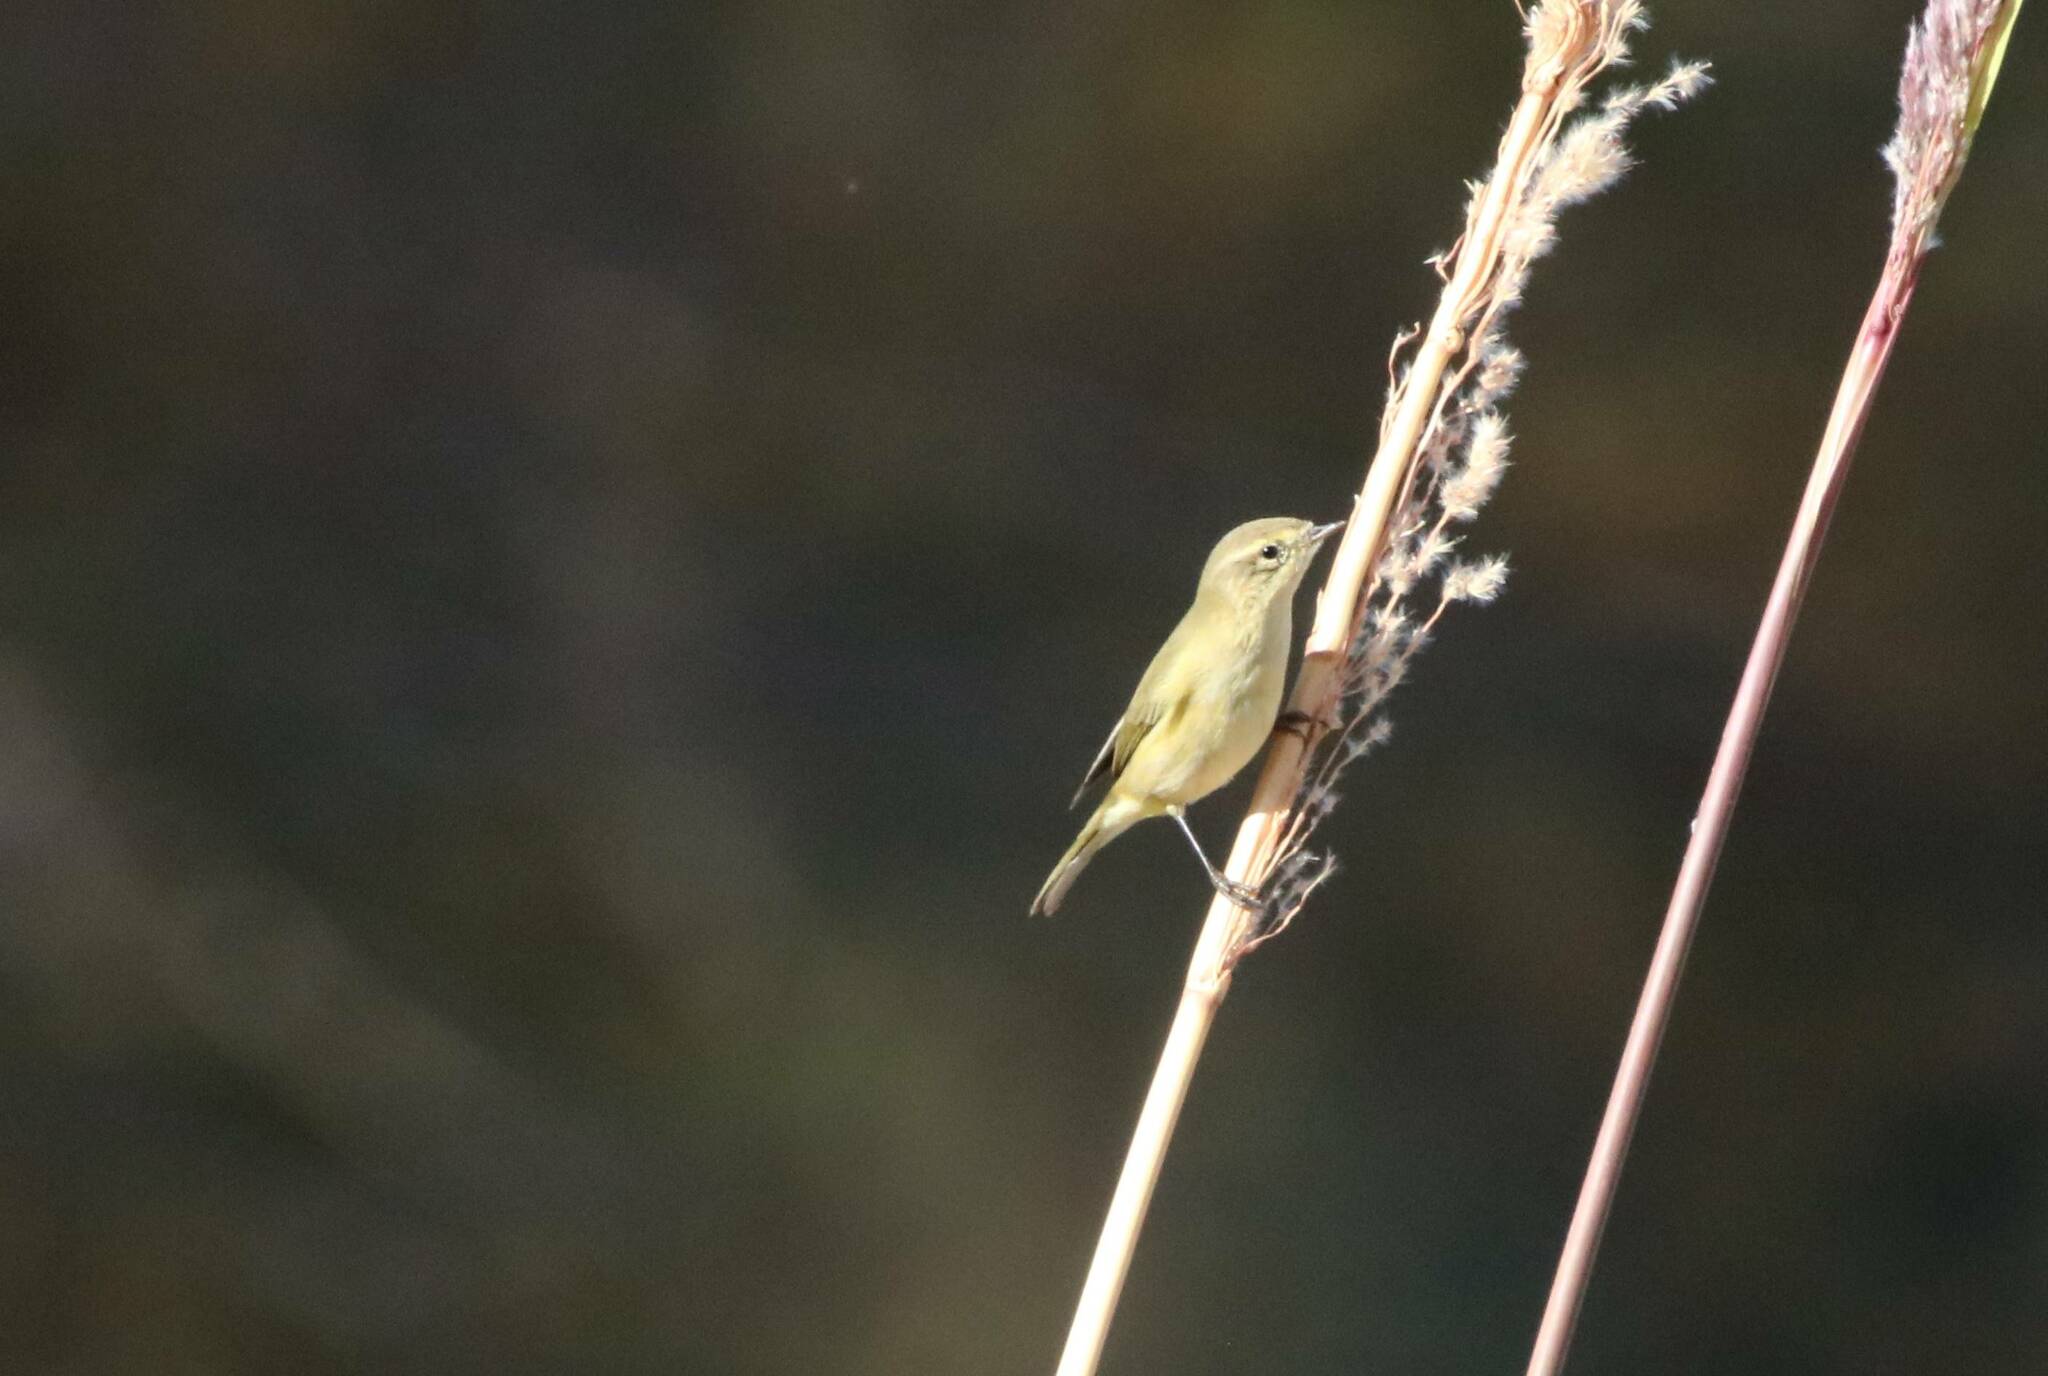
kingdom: Animalia
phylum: Chordata
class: Aves
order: Passeriformes
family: Phylloscopidae
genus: Phylloscopus
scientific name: Phylloscopus collybita
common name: Common chiffchaff
